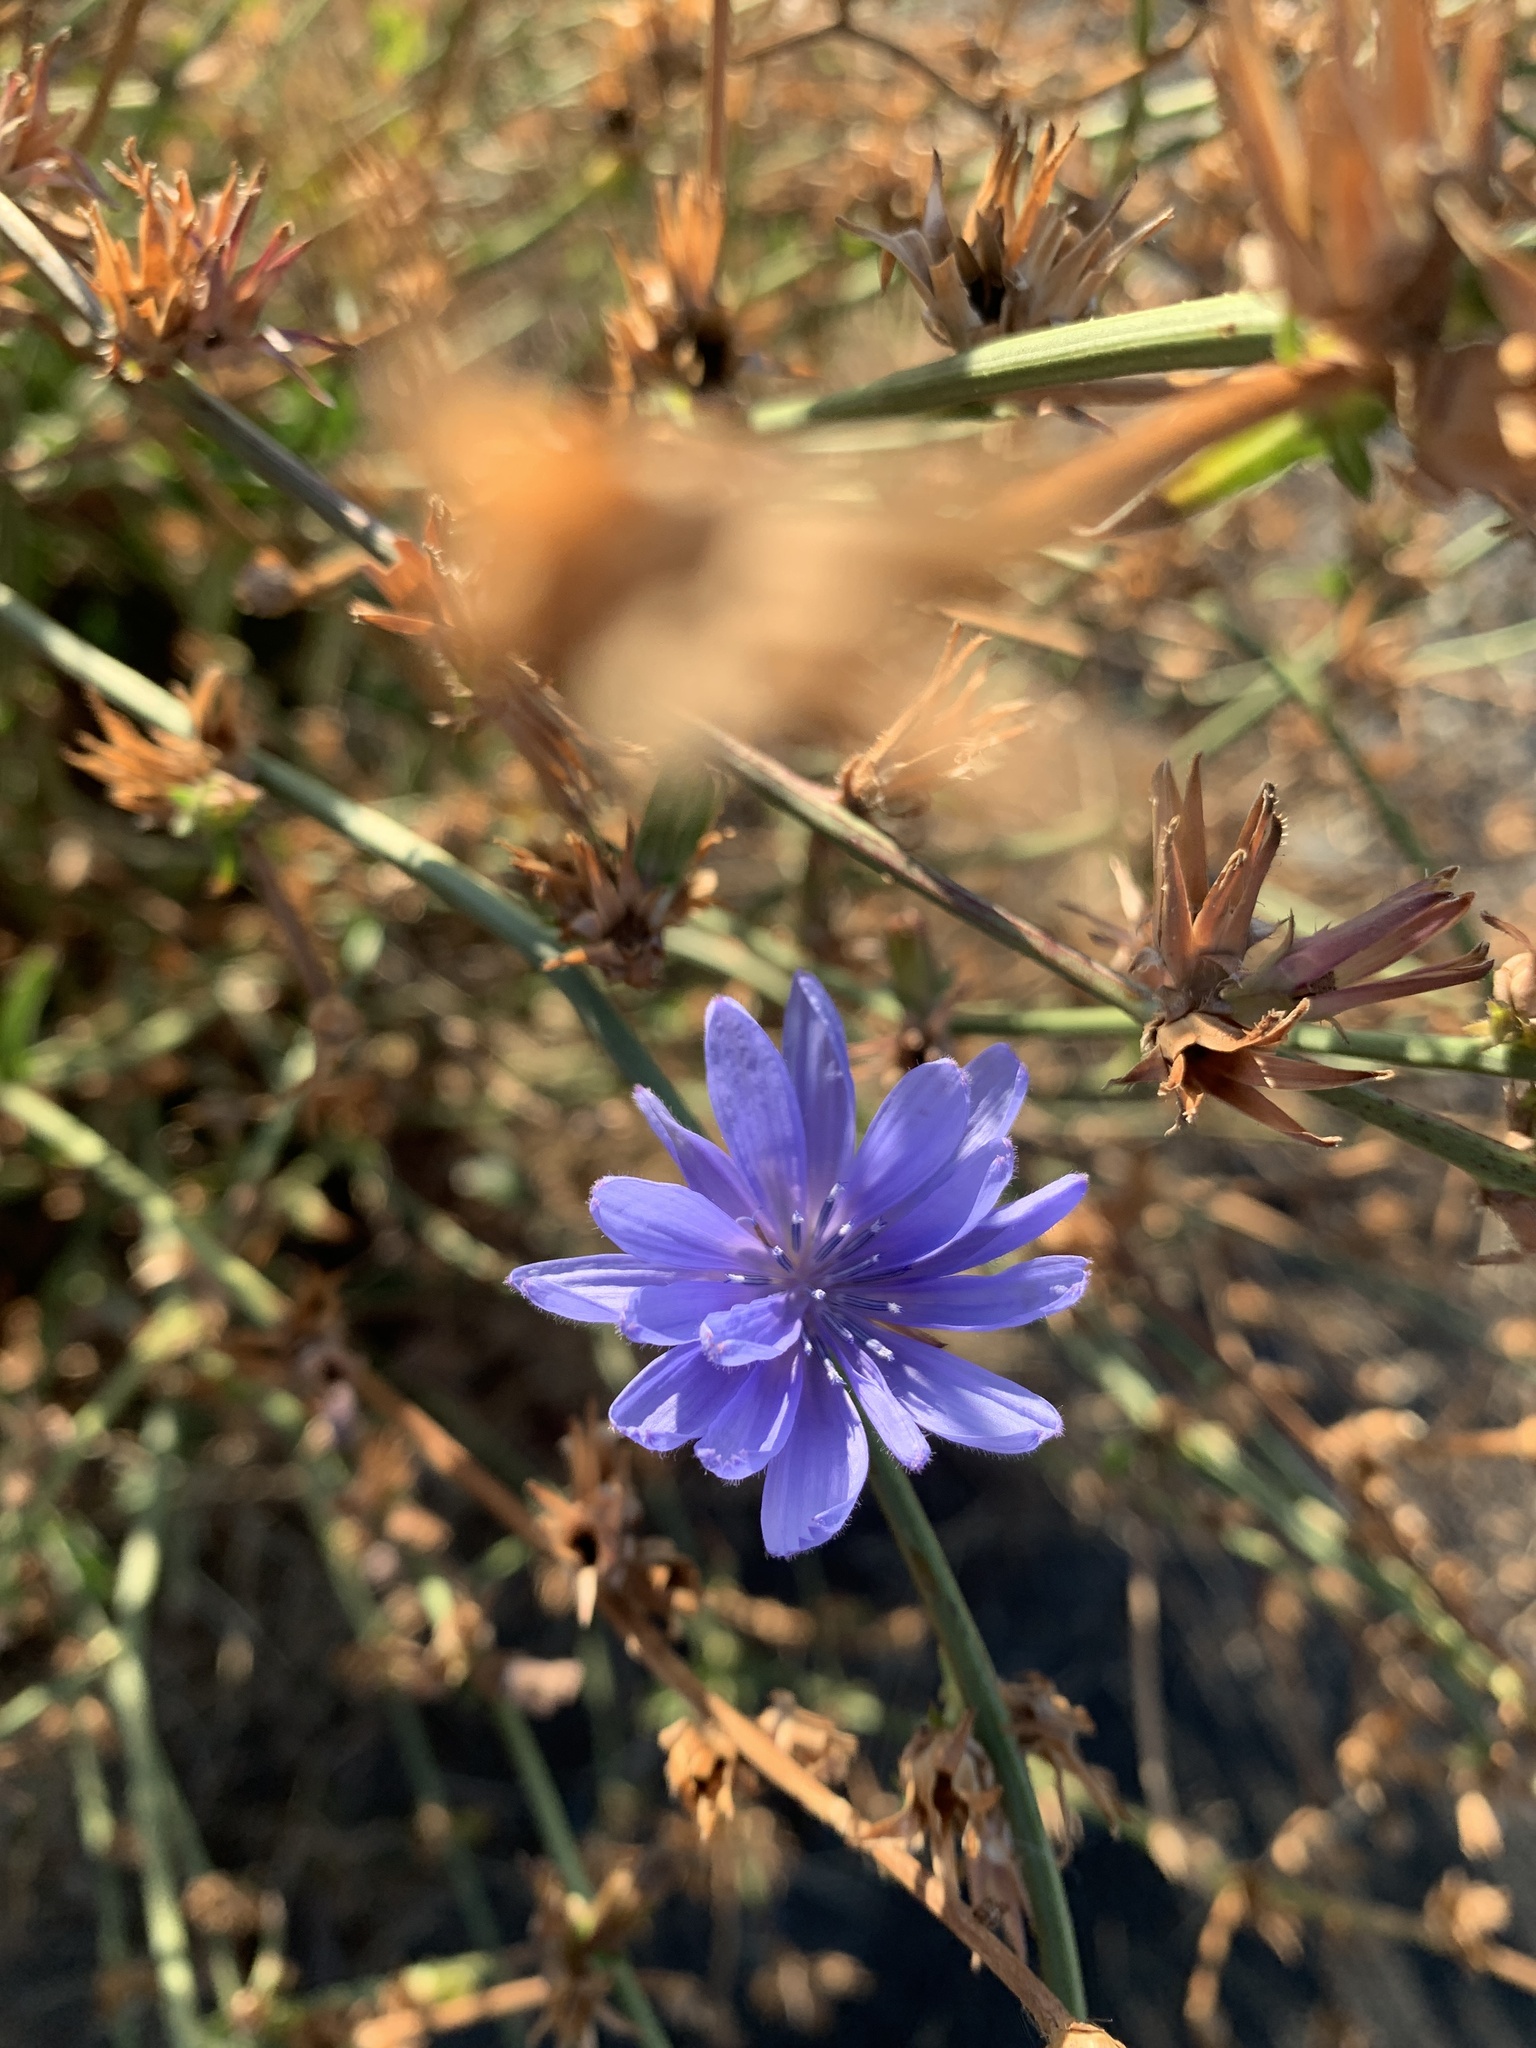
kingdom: Plantae
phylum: Tracheophyta
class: Magnoliopsida
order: Asterales
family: Asteraceae
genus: Cichorium
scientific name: Cichorium intybus
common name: Chicory
